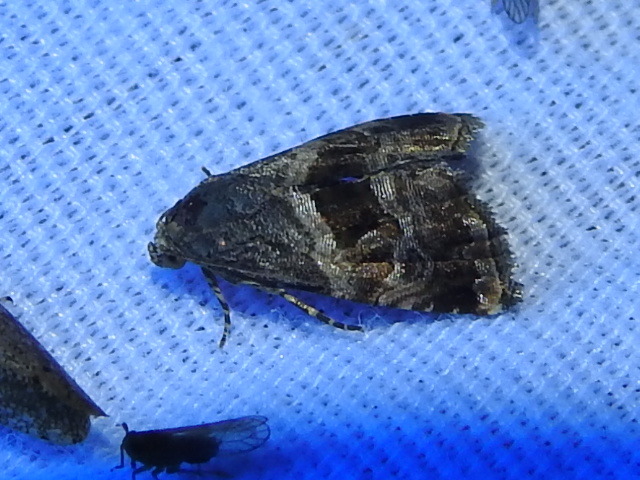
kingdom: Animalia
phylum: Arthropoda
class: Insecta
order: Lepidoptera
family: Noctuidae
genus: Tripudia
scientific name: Tripudia quadrifera
